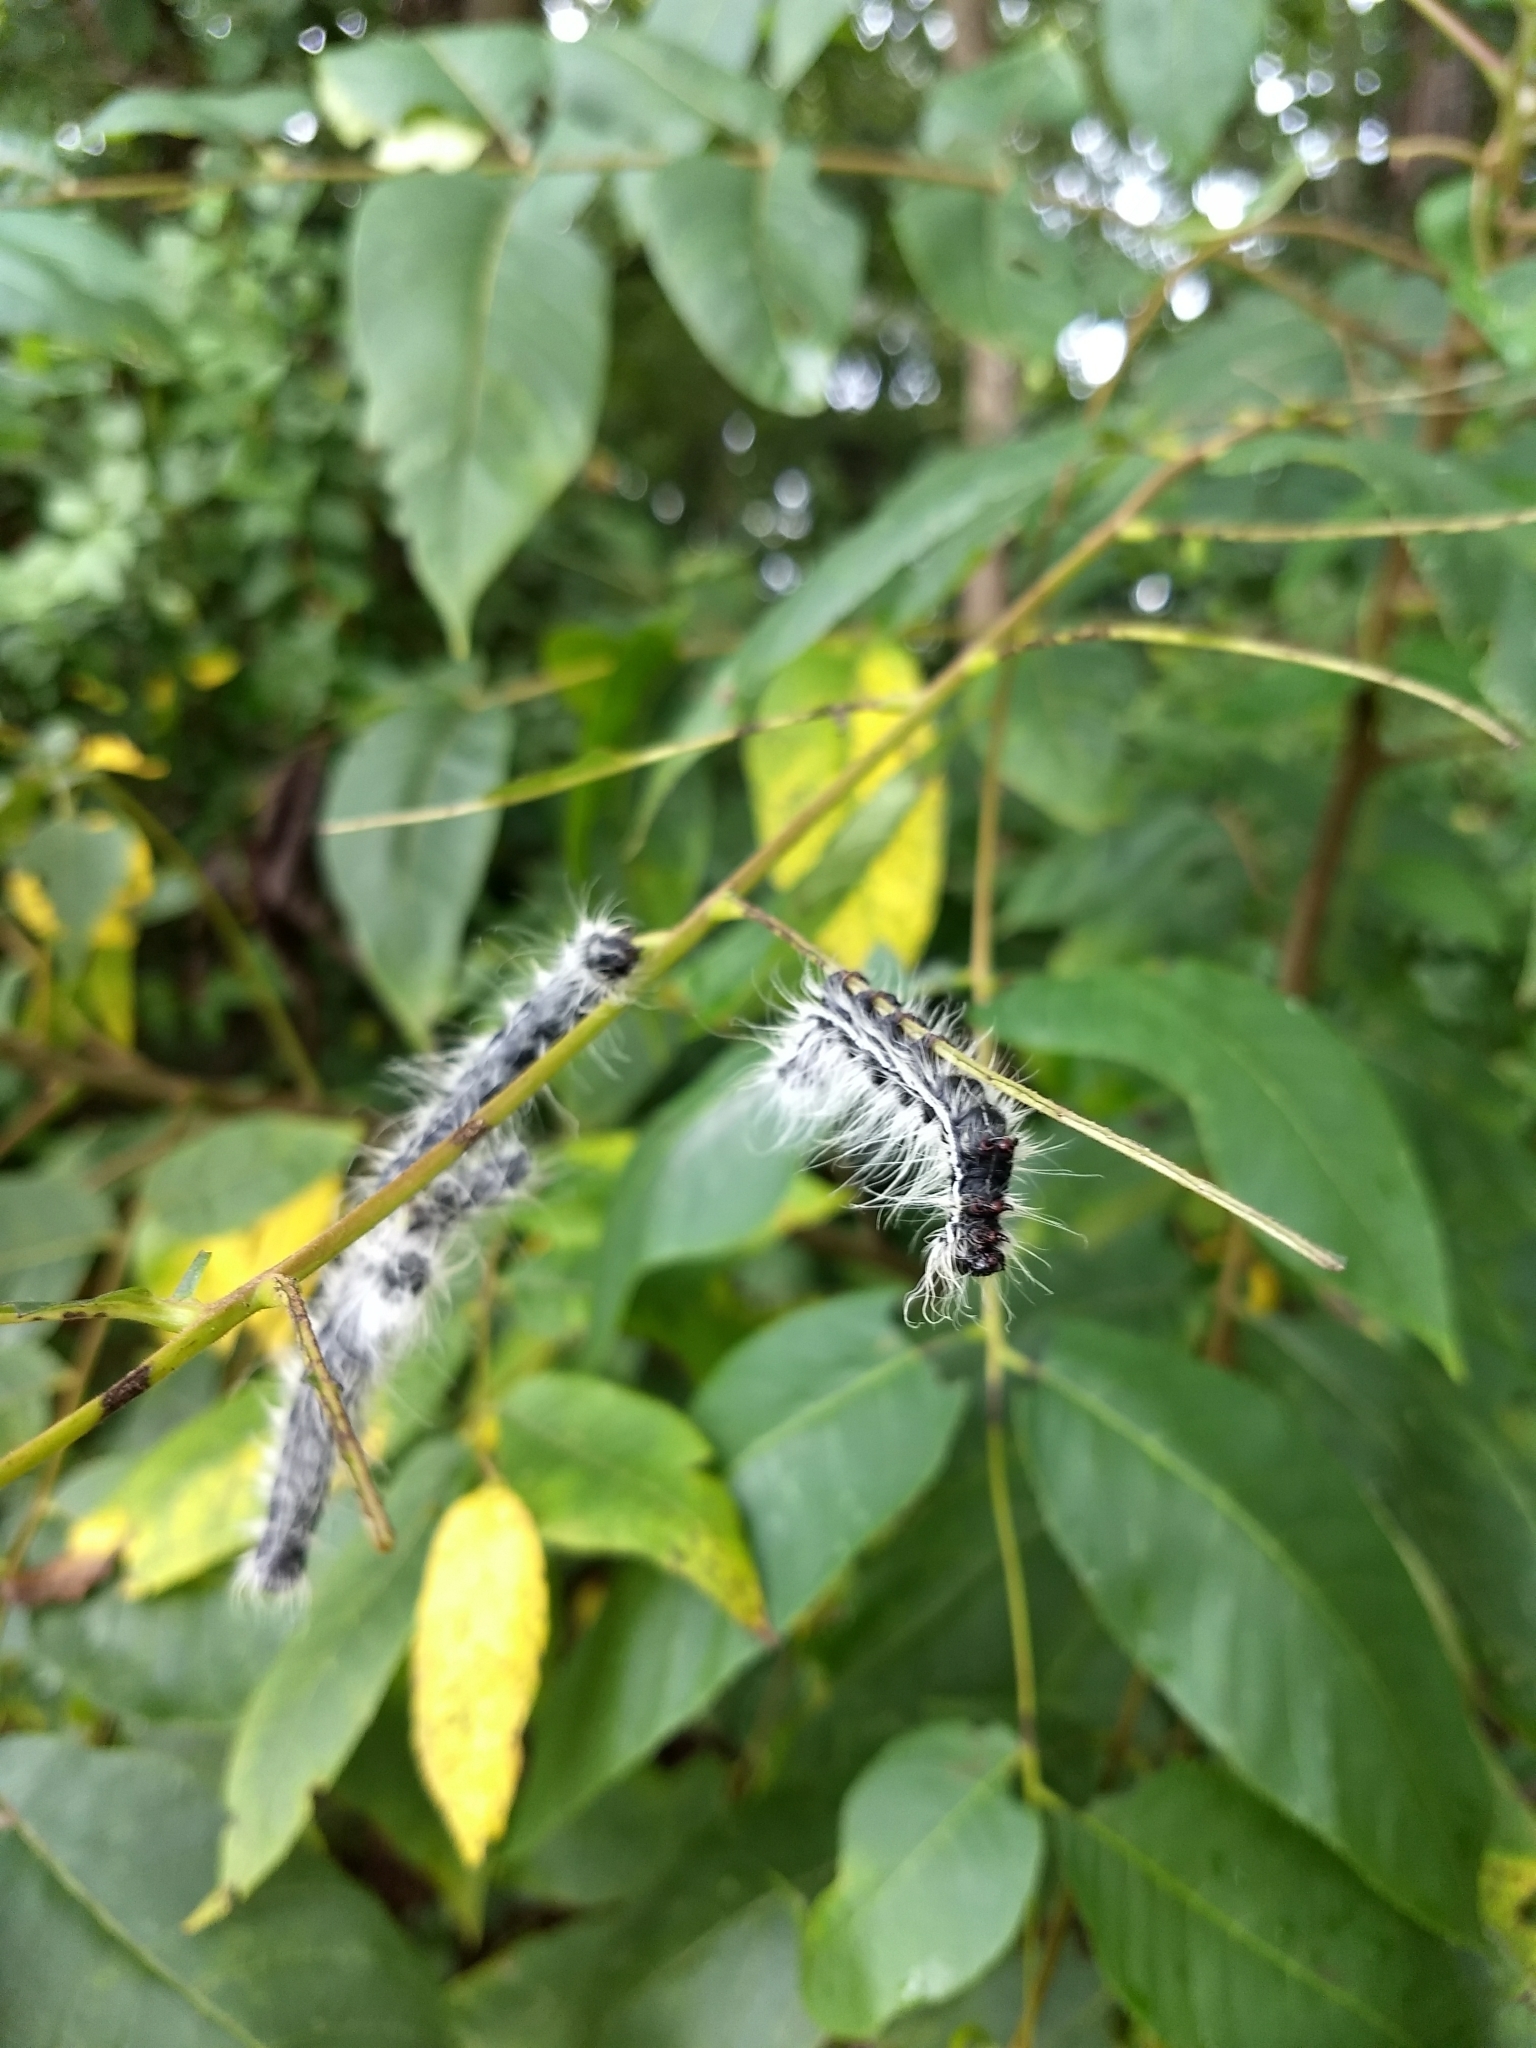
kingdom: Animalia
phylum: Arthropoda
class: Insecta
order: Lepidoptera
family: Notodontidae
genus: Datana
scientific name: Datana integerrima
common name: Walnut caterpillar
